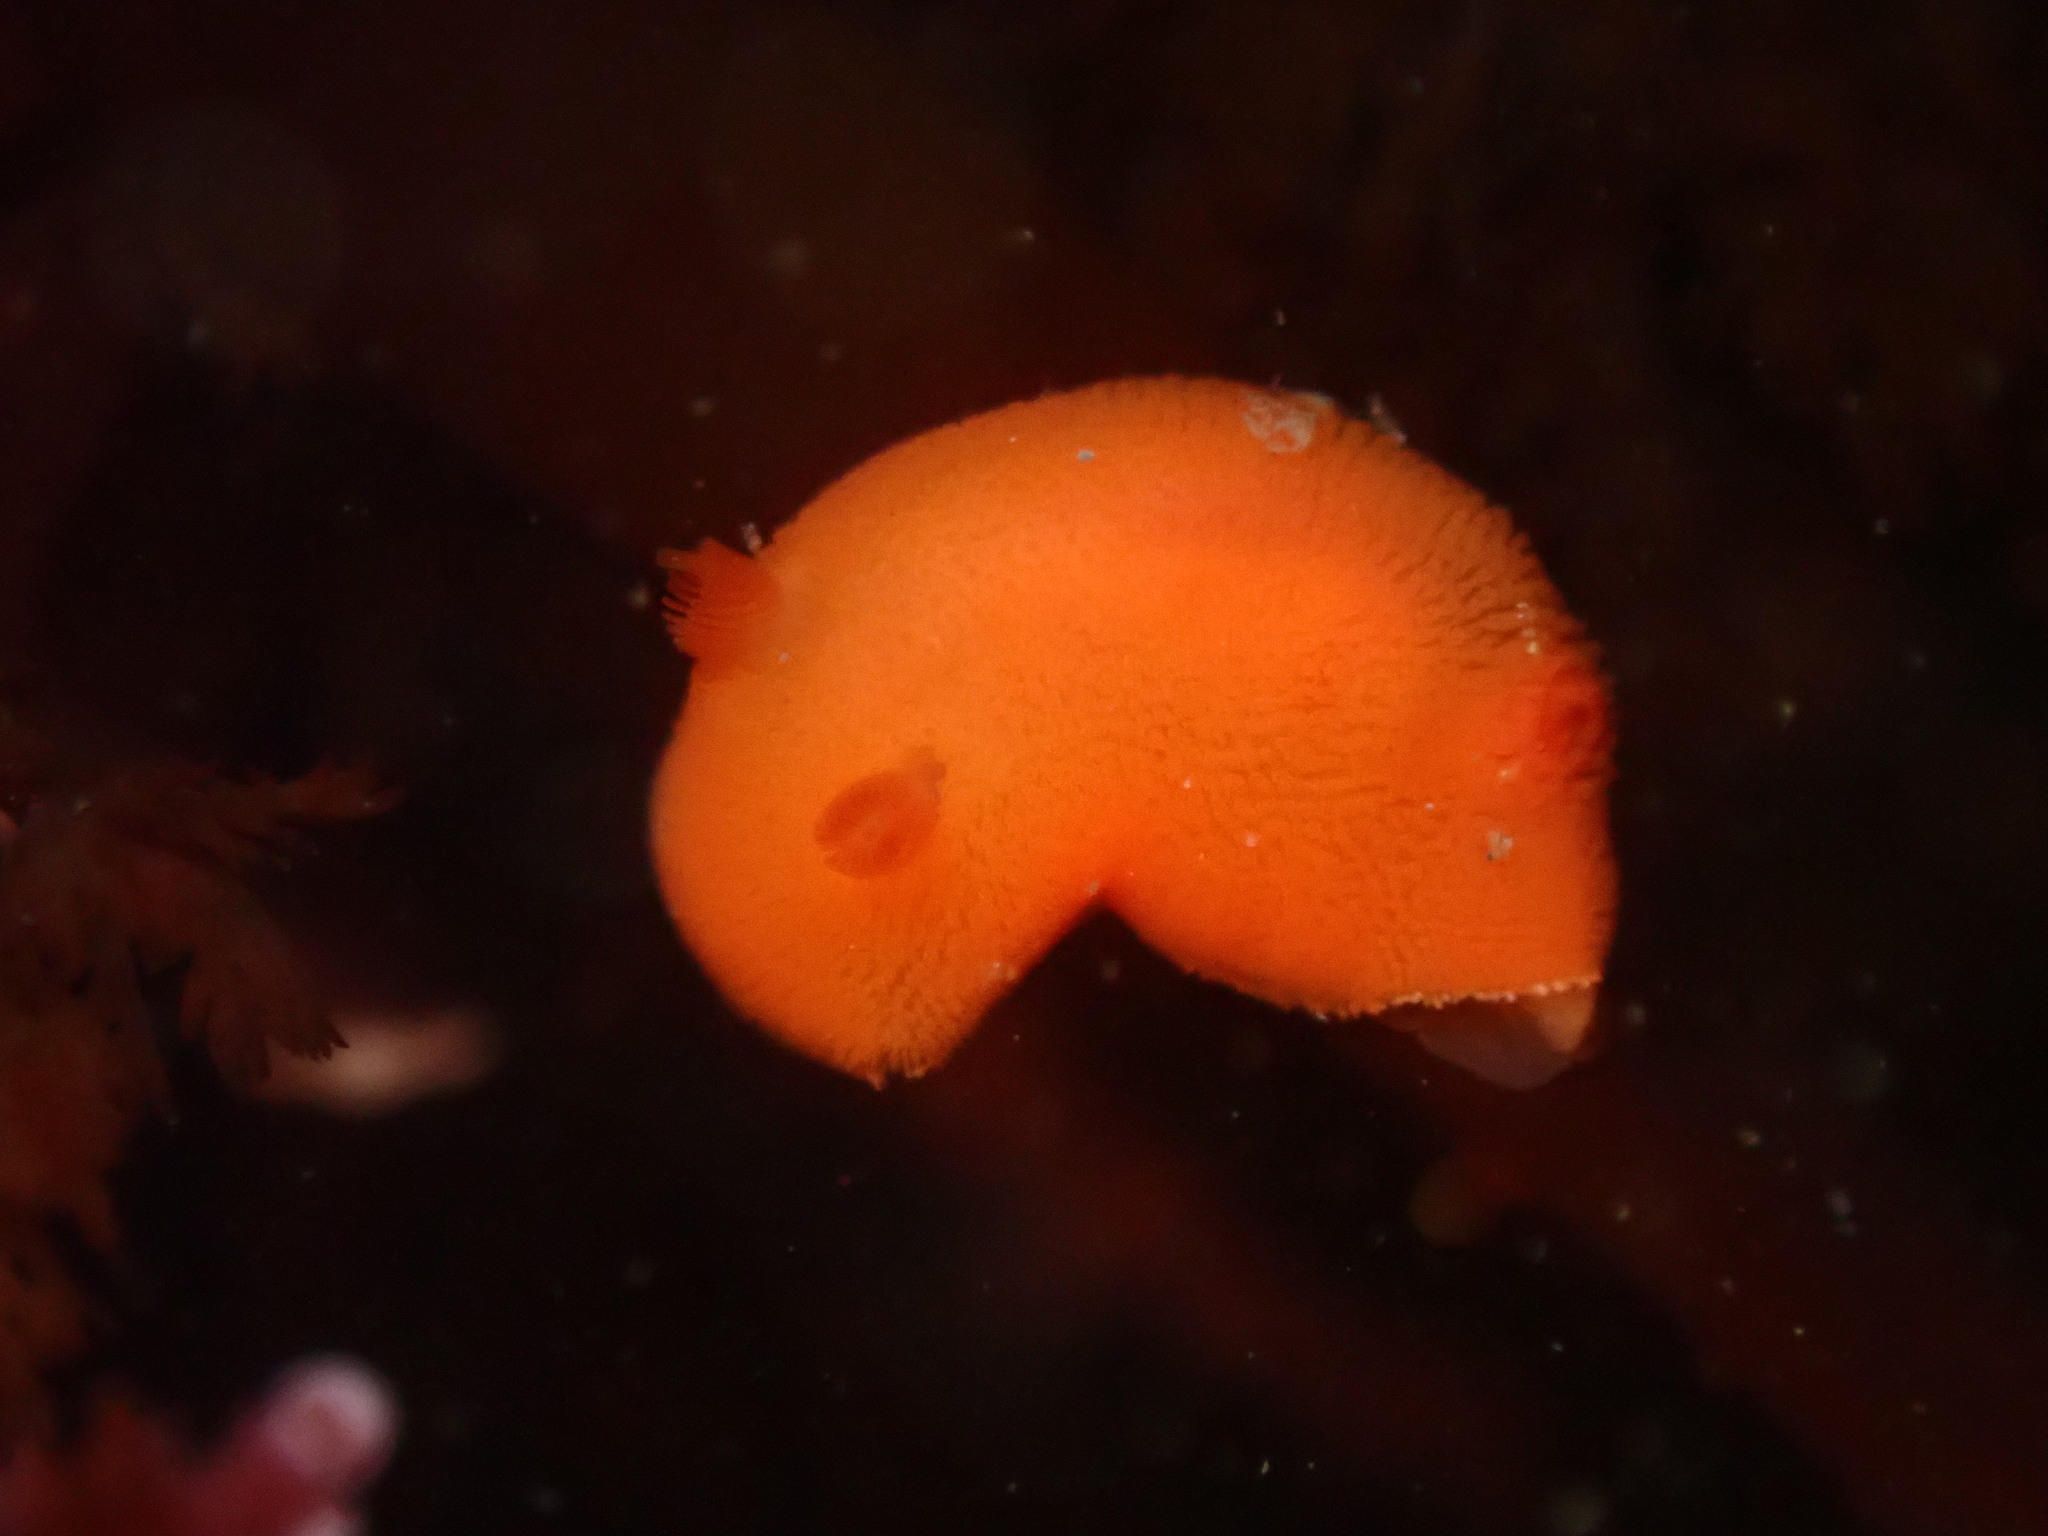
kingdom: Animalia
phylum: Mollusca
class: Gastropoda
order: Nudibranchia
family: Discodorididae
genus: Rostanga
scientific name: Rostanga pulchra
